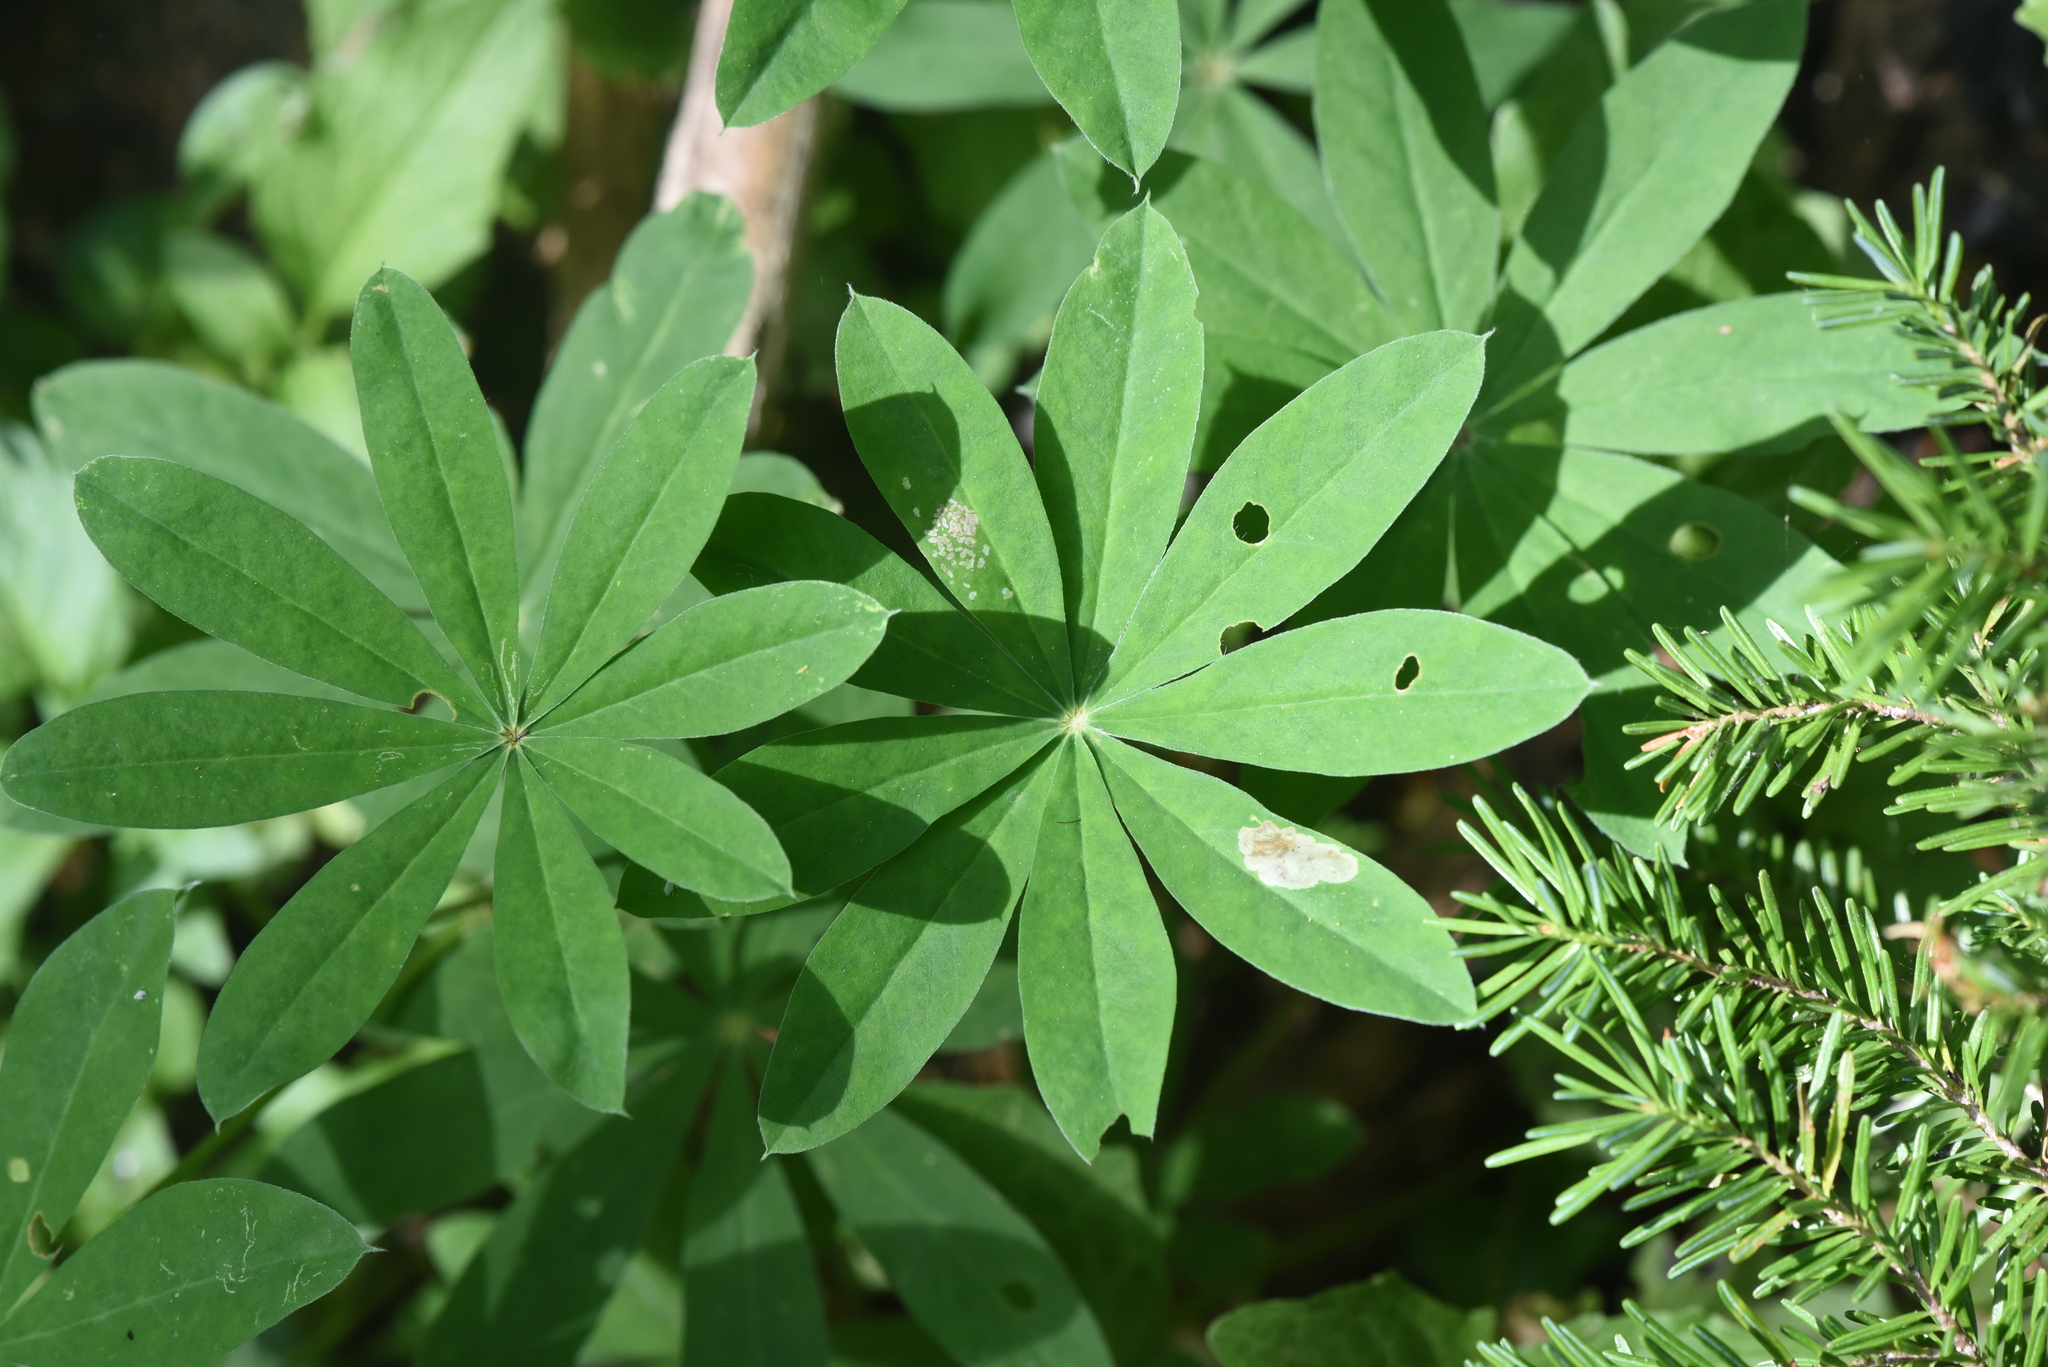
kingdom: Plantae
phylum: Tracheophyta
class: Magnoliopsida
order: Fabales
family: Fabaceae
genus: Lupinus
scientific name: Lupinus polyphyllus
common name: Garden lupin
